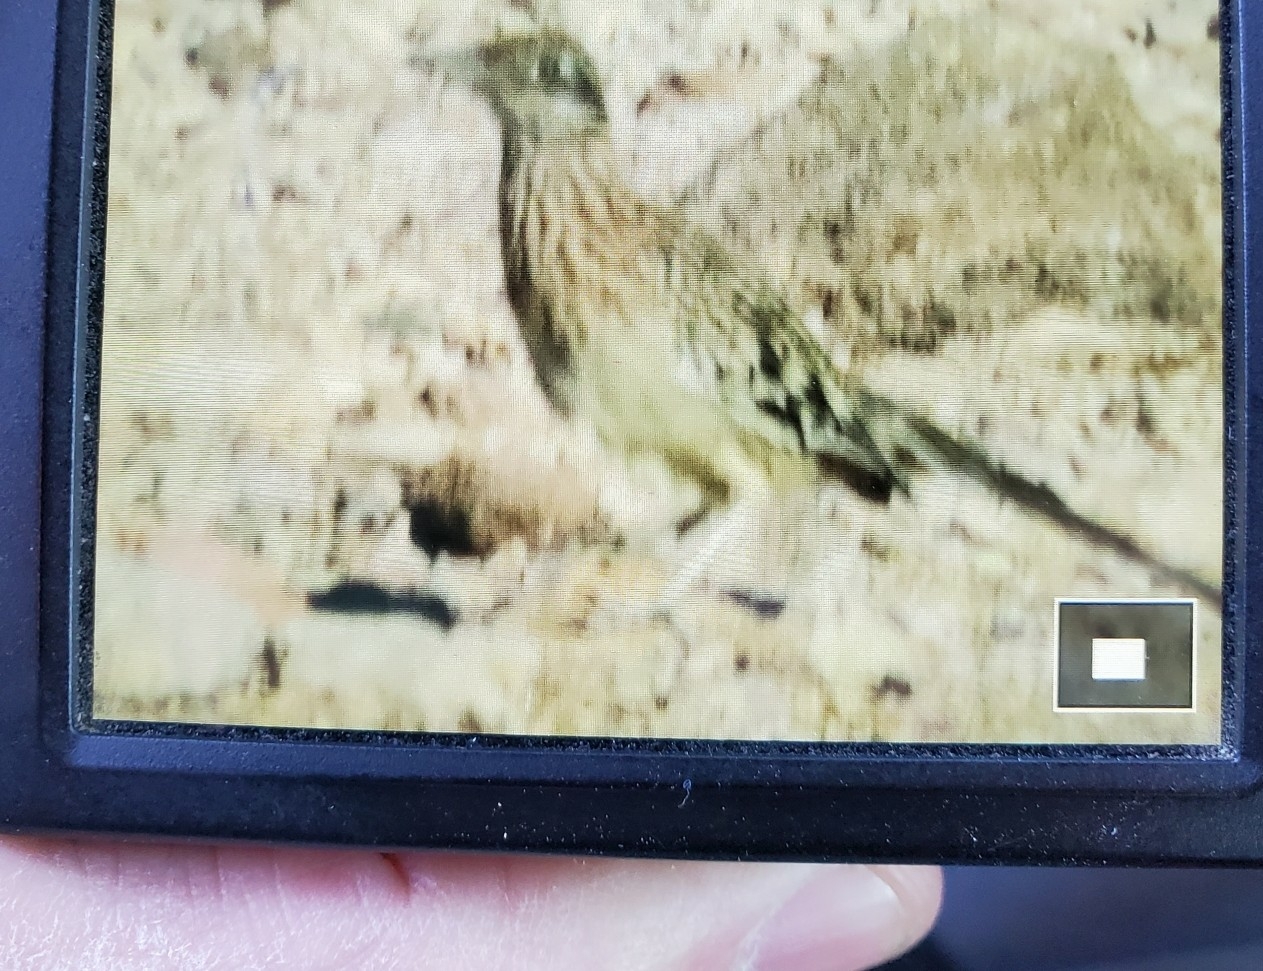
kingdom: Animalia
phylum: Chordata
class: Aves
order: Cuculiformes
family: Cuculidae
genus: Geococcyx
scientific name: Geococcyx californianus
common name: Greater roadrunner
